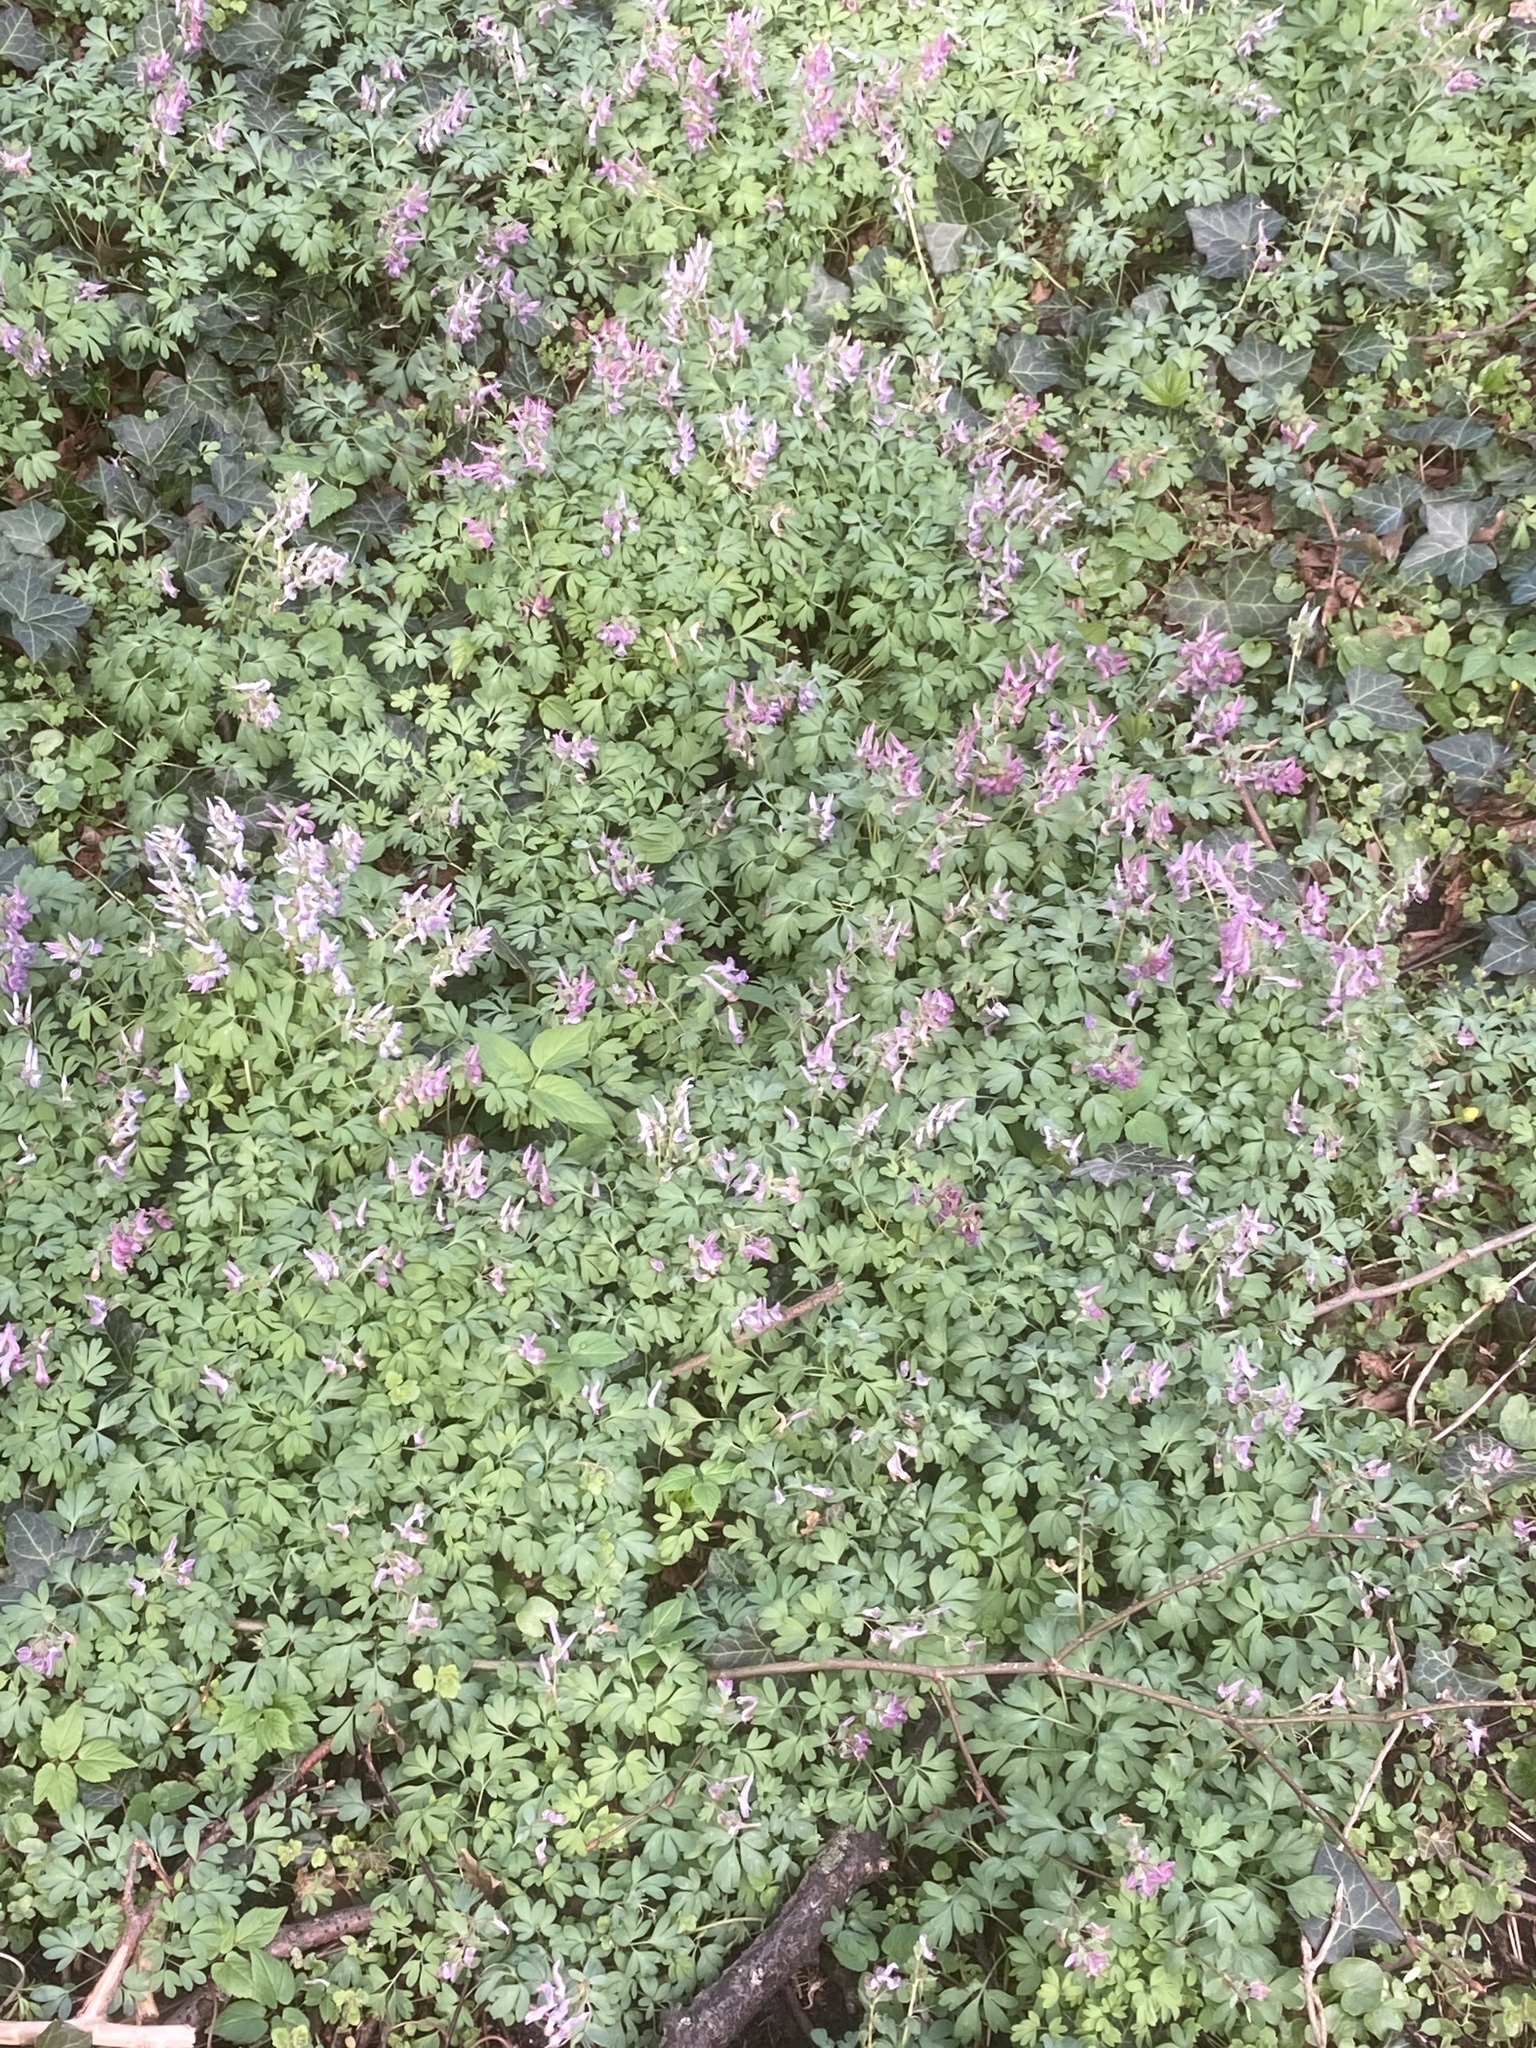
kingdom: Plantae
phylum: Tracheophyta
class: Magnoliopsida
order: Ranunculales
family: Papaveraceae
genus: Corydalis
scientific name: Corydalis solida
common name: Bird-in-a-bush
